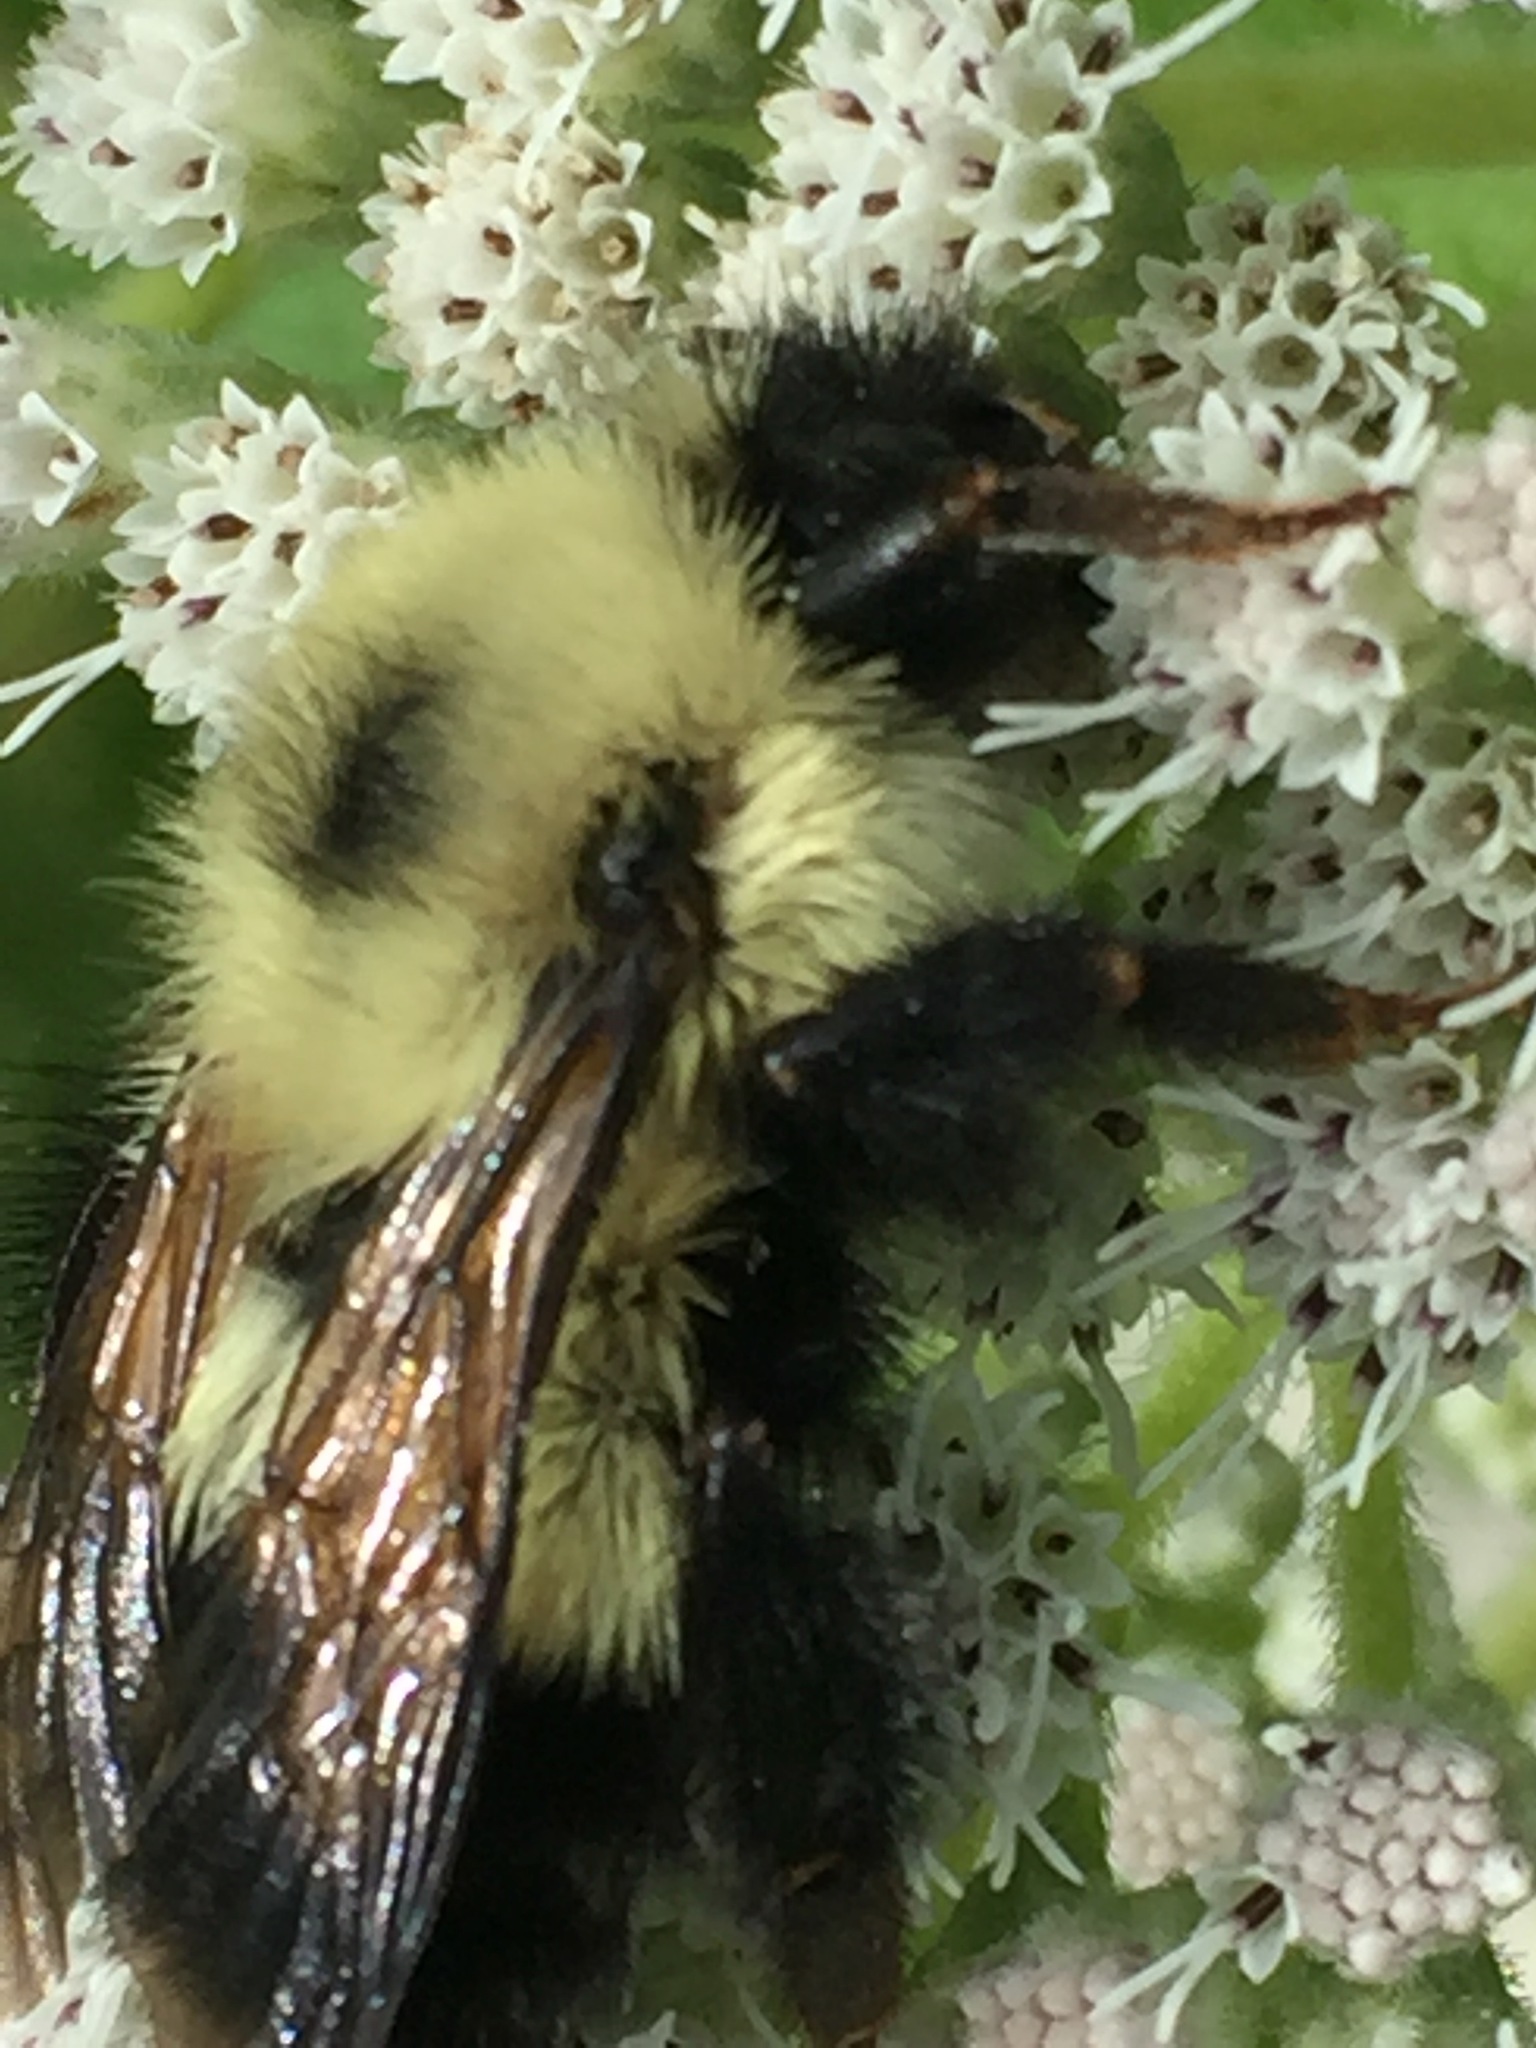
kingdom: Animalia
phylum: Arthropoda
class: Insecta
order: Hymenoptera
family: Apidae
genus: Pyrobombus
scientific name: Pyrobombus
